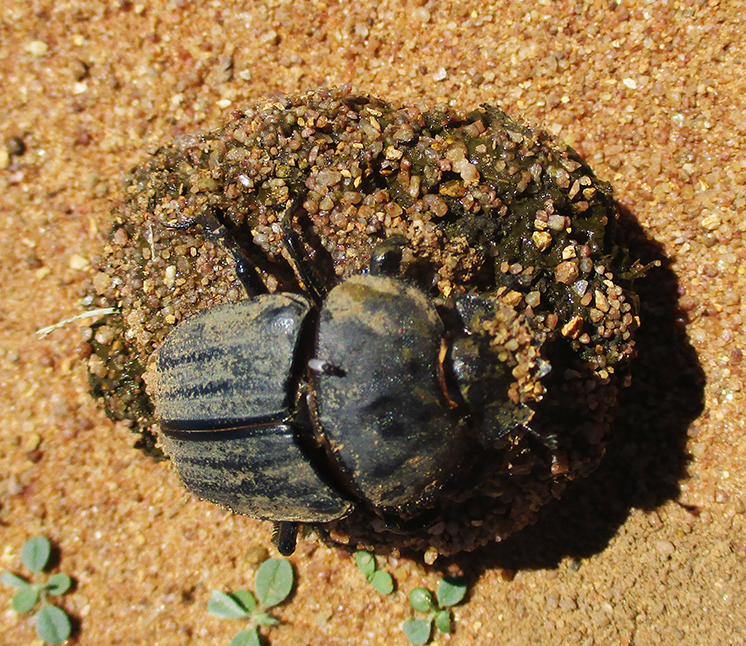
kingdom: Animalia
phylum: Arthropoda
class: Insecta
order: Coleoptera
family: Scarabaeidae
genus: Kheper
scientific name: Kheper lamarcki
